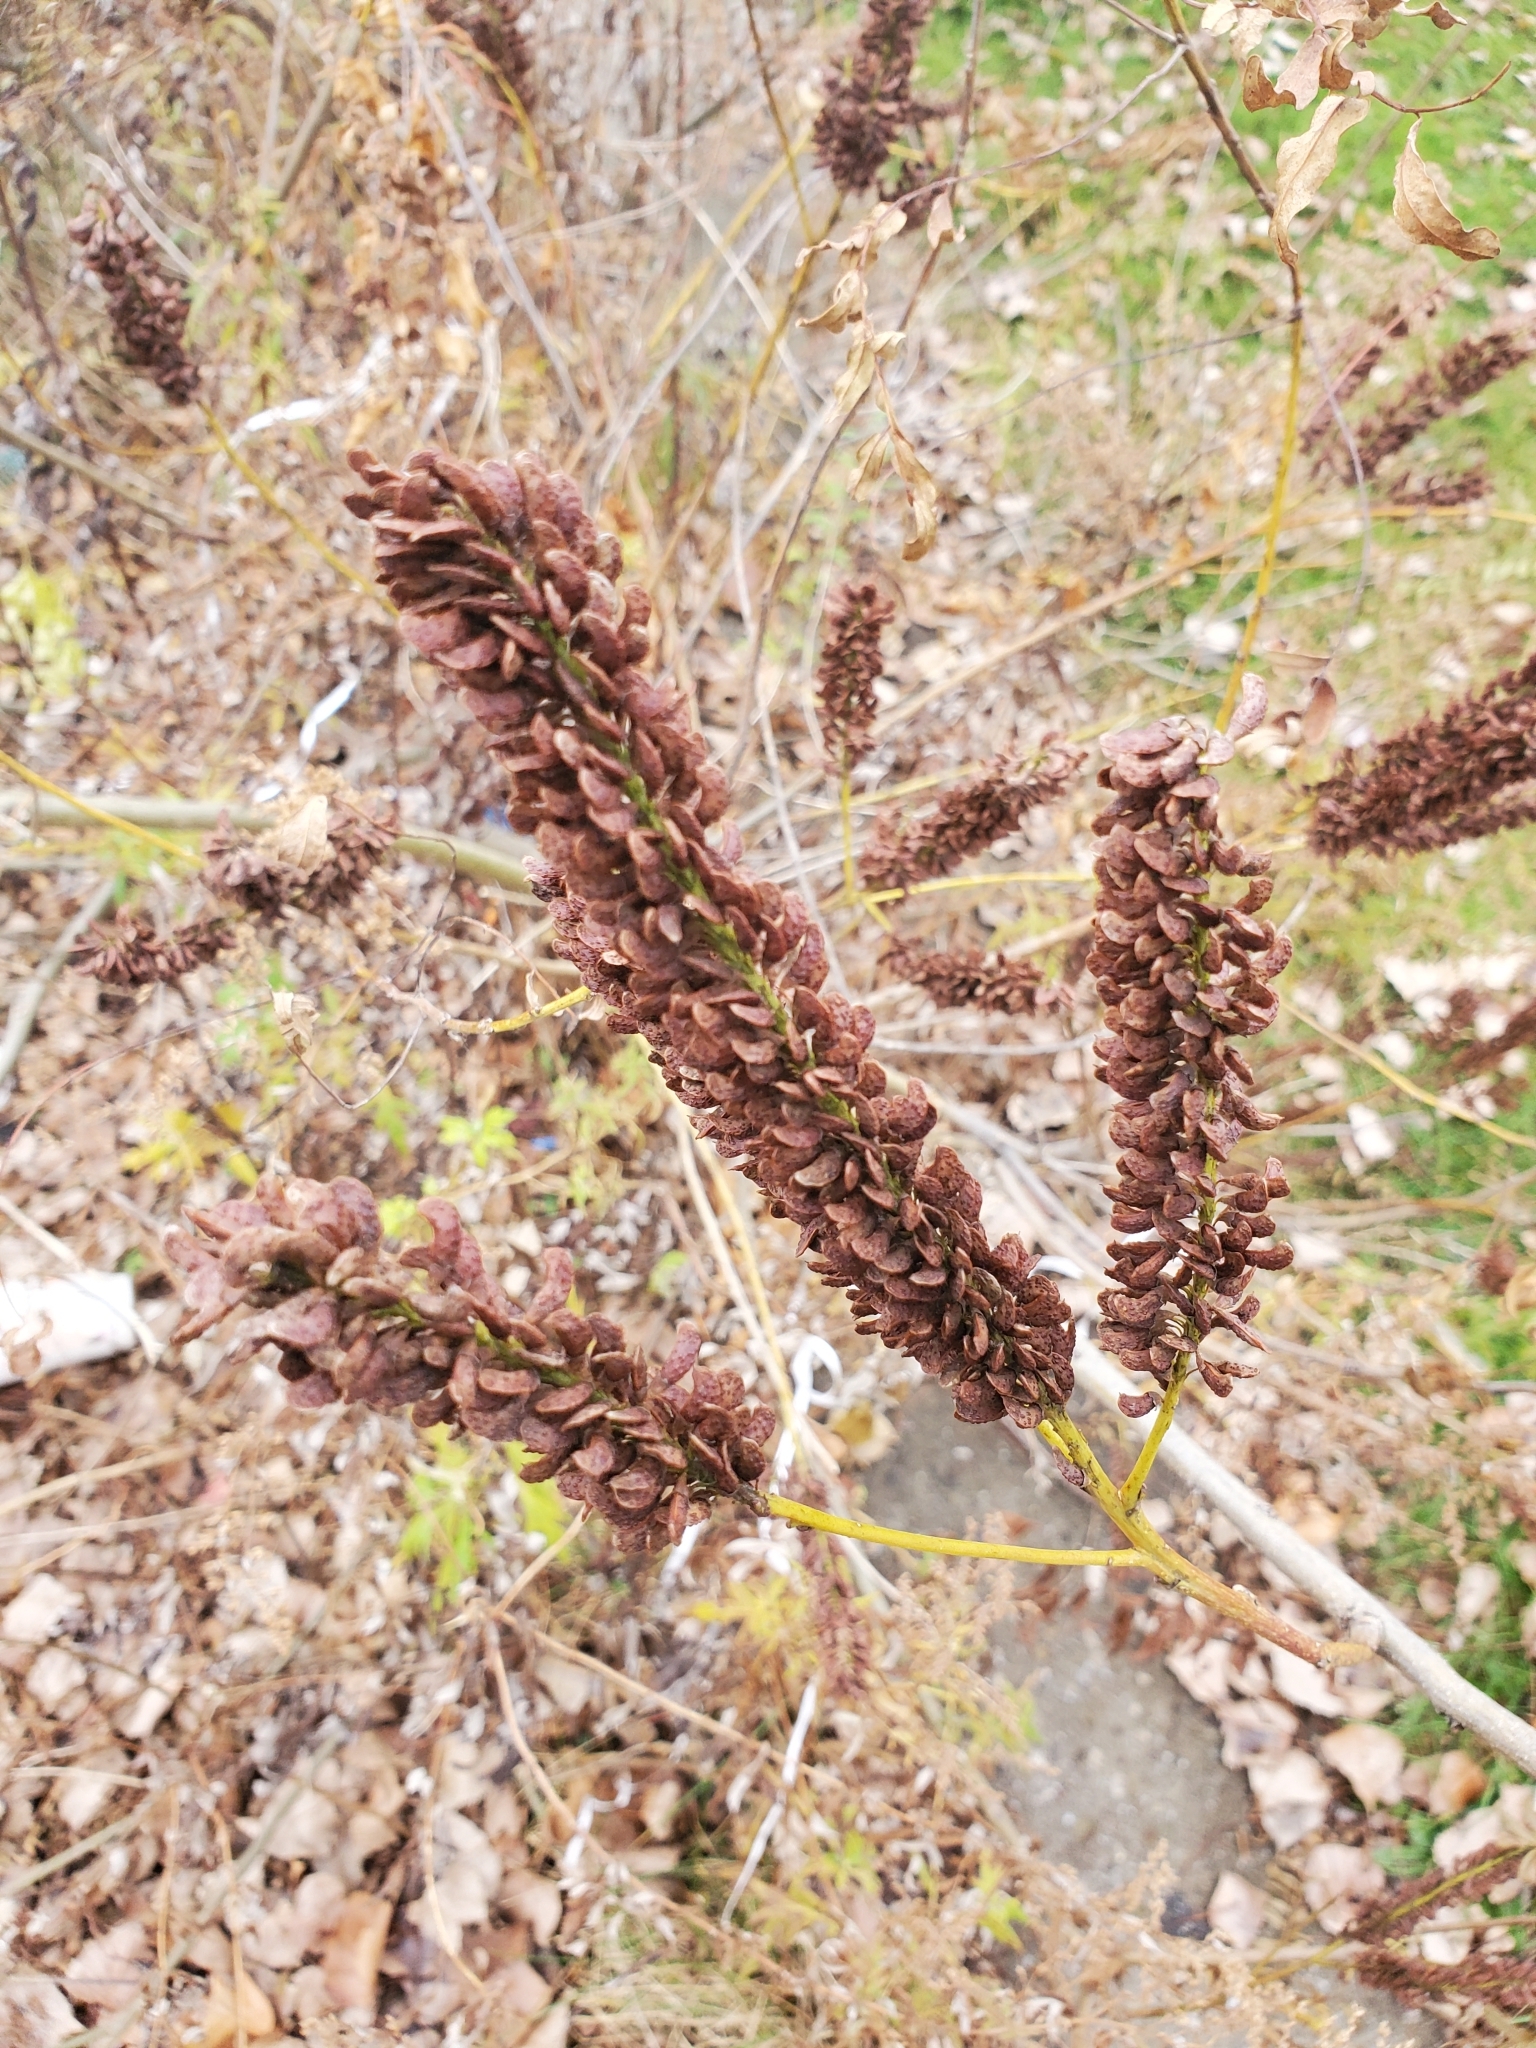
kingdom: Plantae
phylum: Tracheophyta
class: Magnoliopsida
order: Fabales
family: Fabaceae
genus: Amorpha
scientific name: Amorpha fruticosa
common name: False indigo
